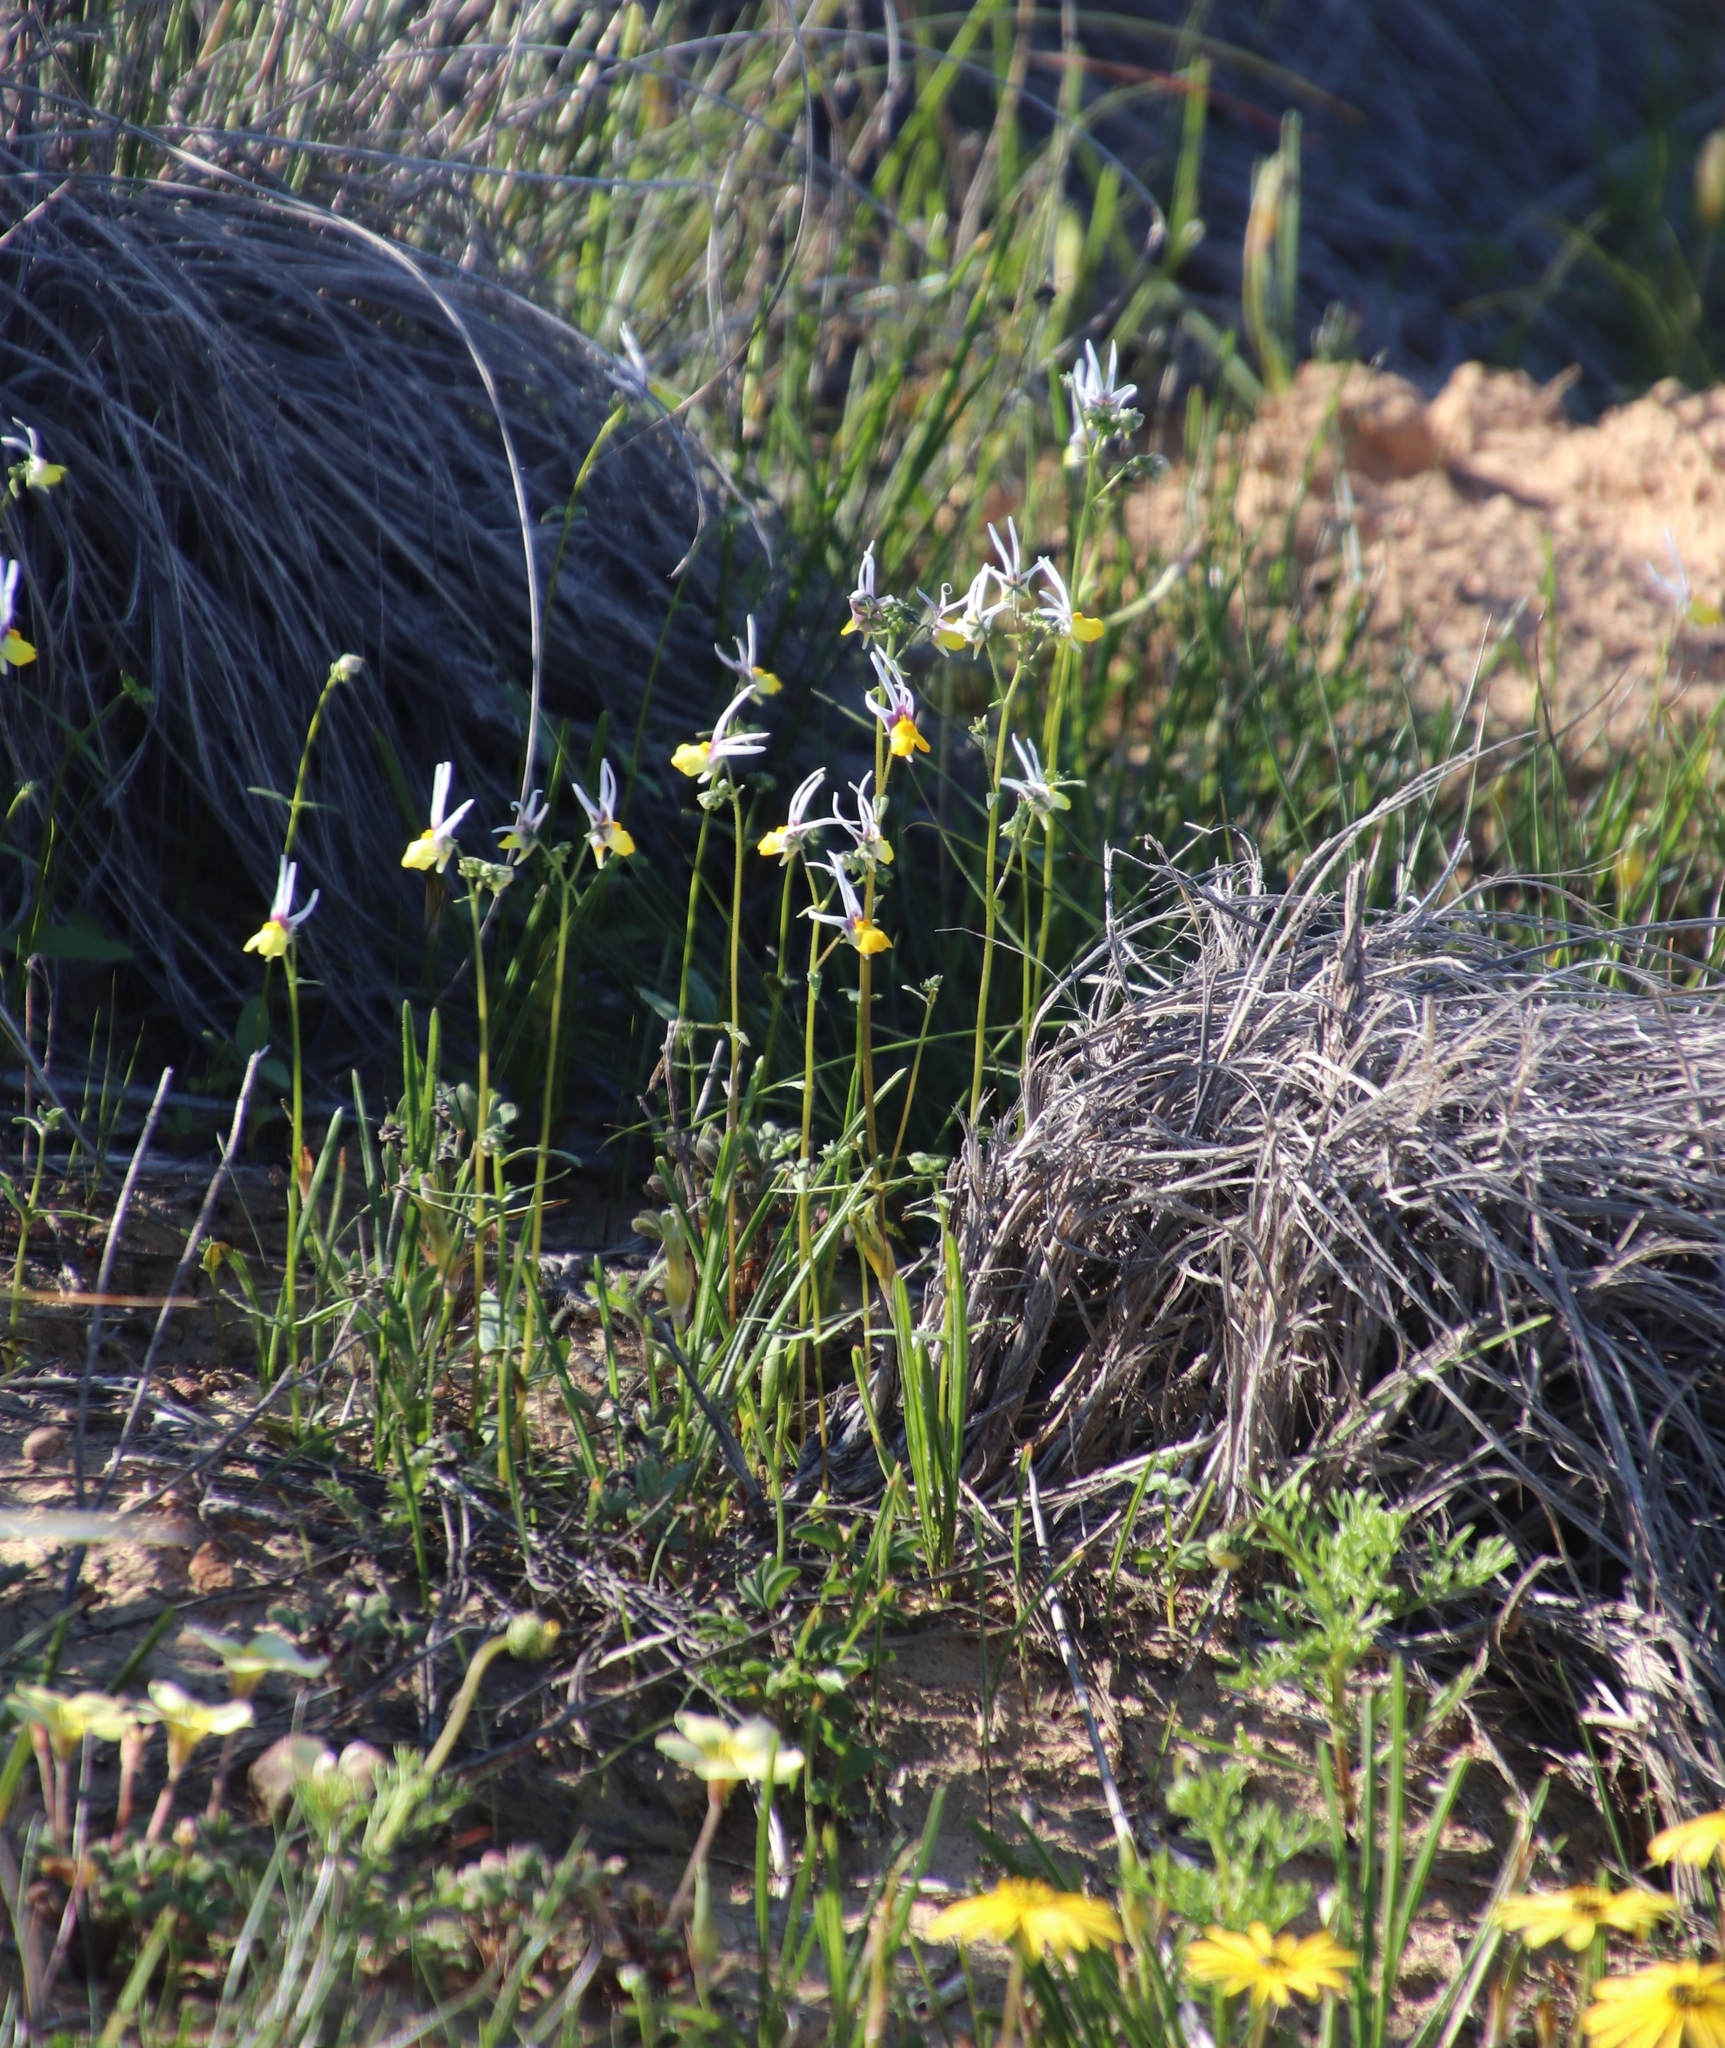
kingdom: Plantae
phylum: Tracheophyta
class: Magnoliopsida
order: Lamiales
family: Scrophulariaceae
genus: Nemesia
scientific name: Nemesia cheiranthus
